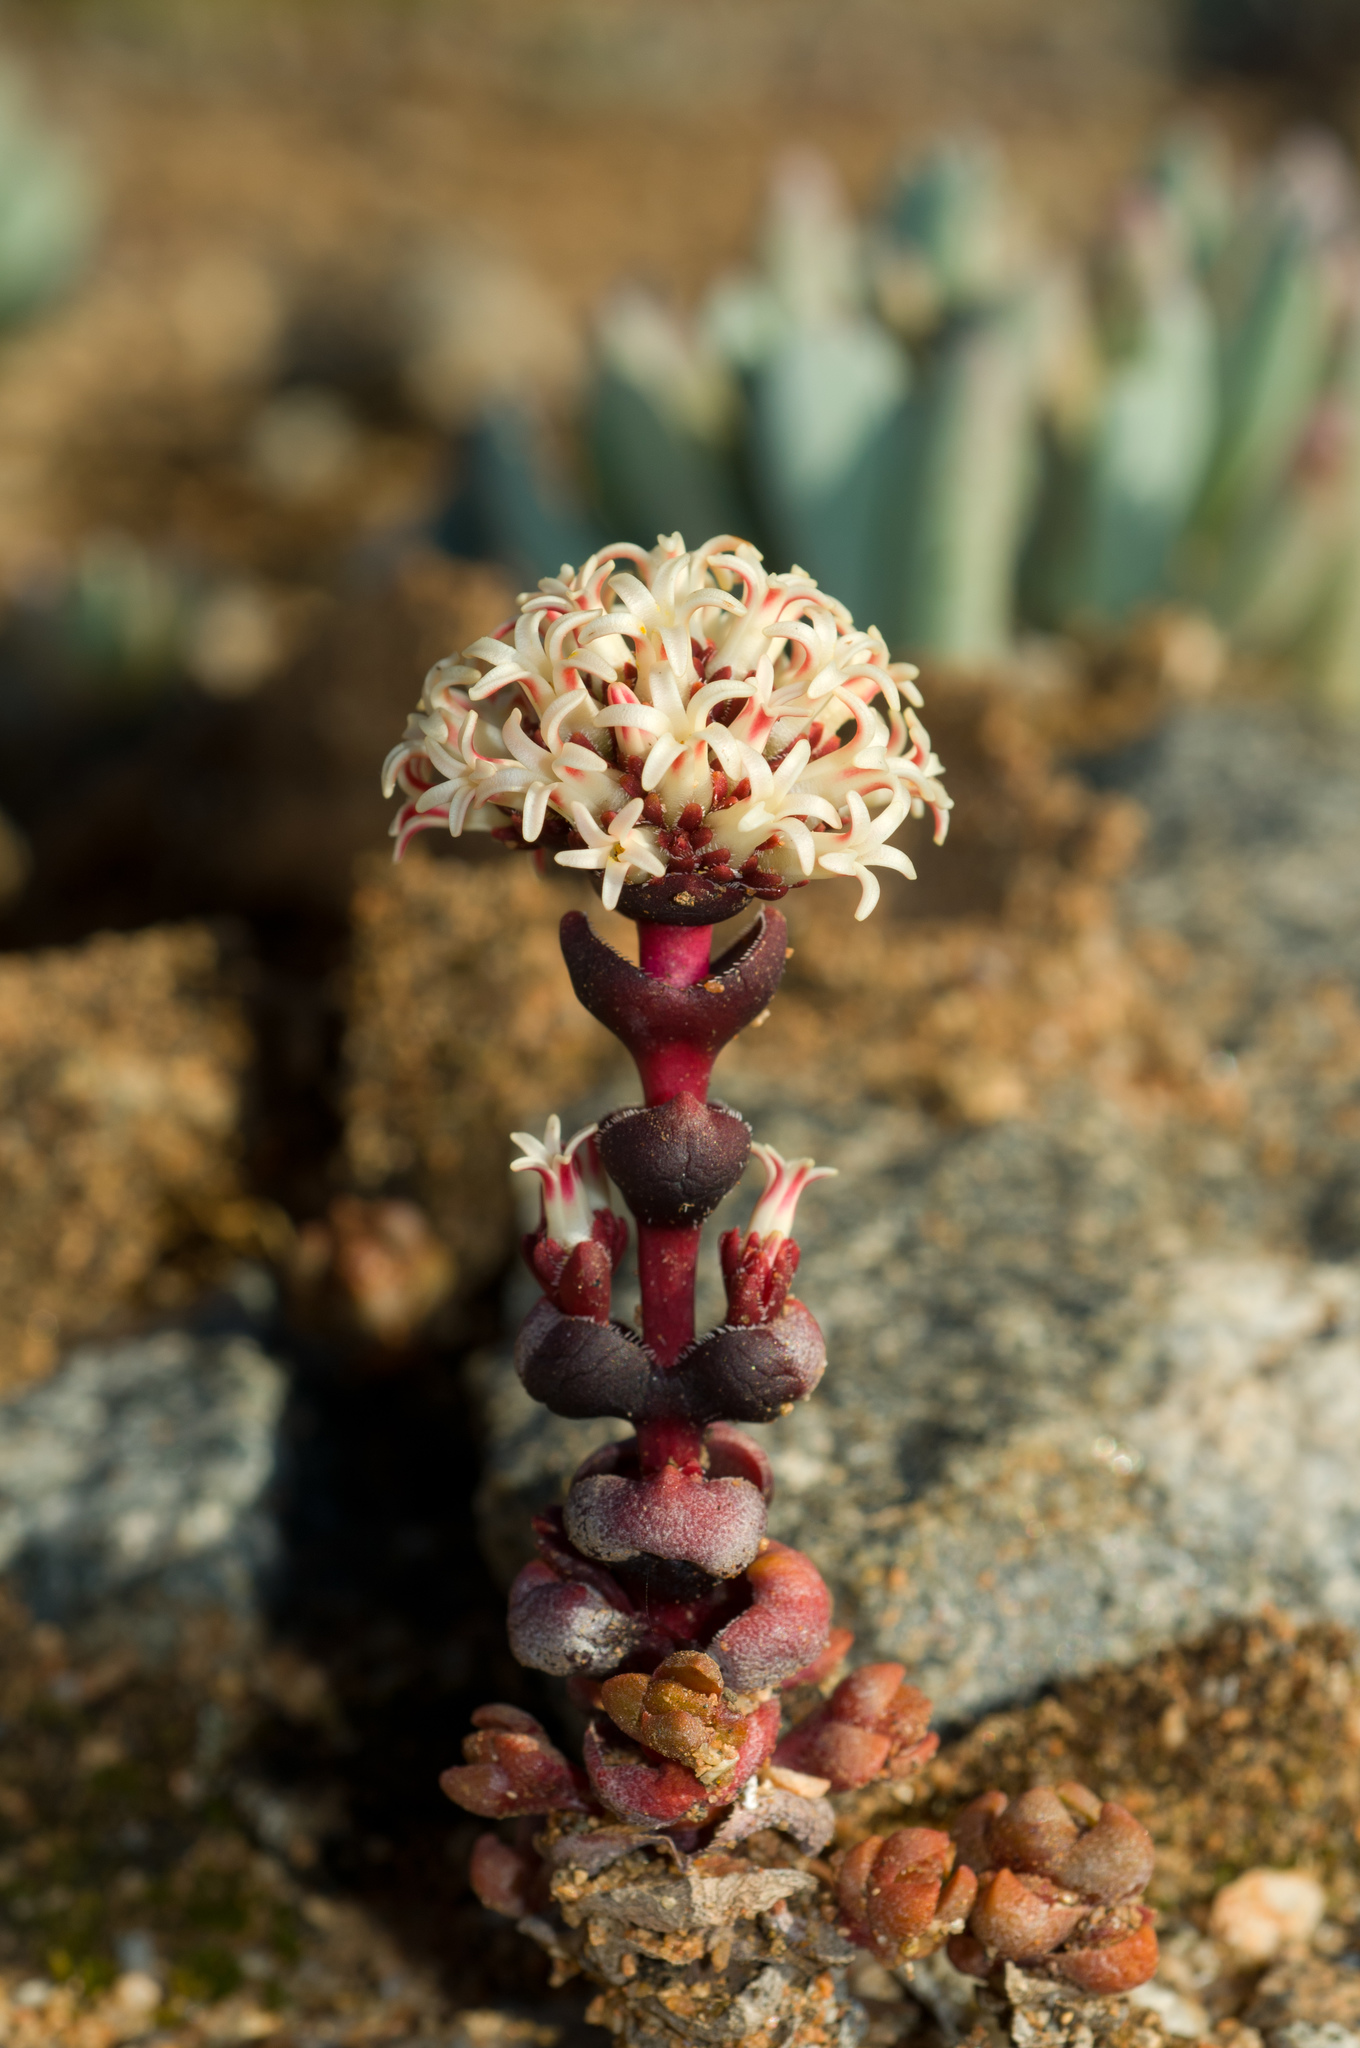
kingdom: Plantae
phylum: Tracheophyta
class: Magnoliopsida
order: Saxifragales
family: Crassulaceae
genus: Crassula
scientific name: Crassula columnaris
